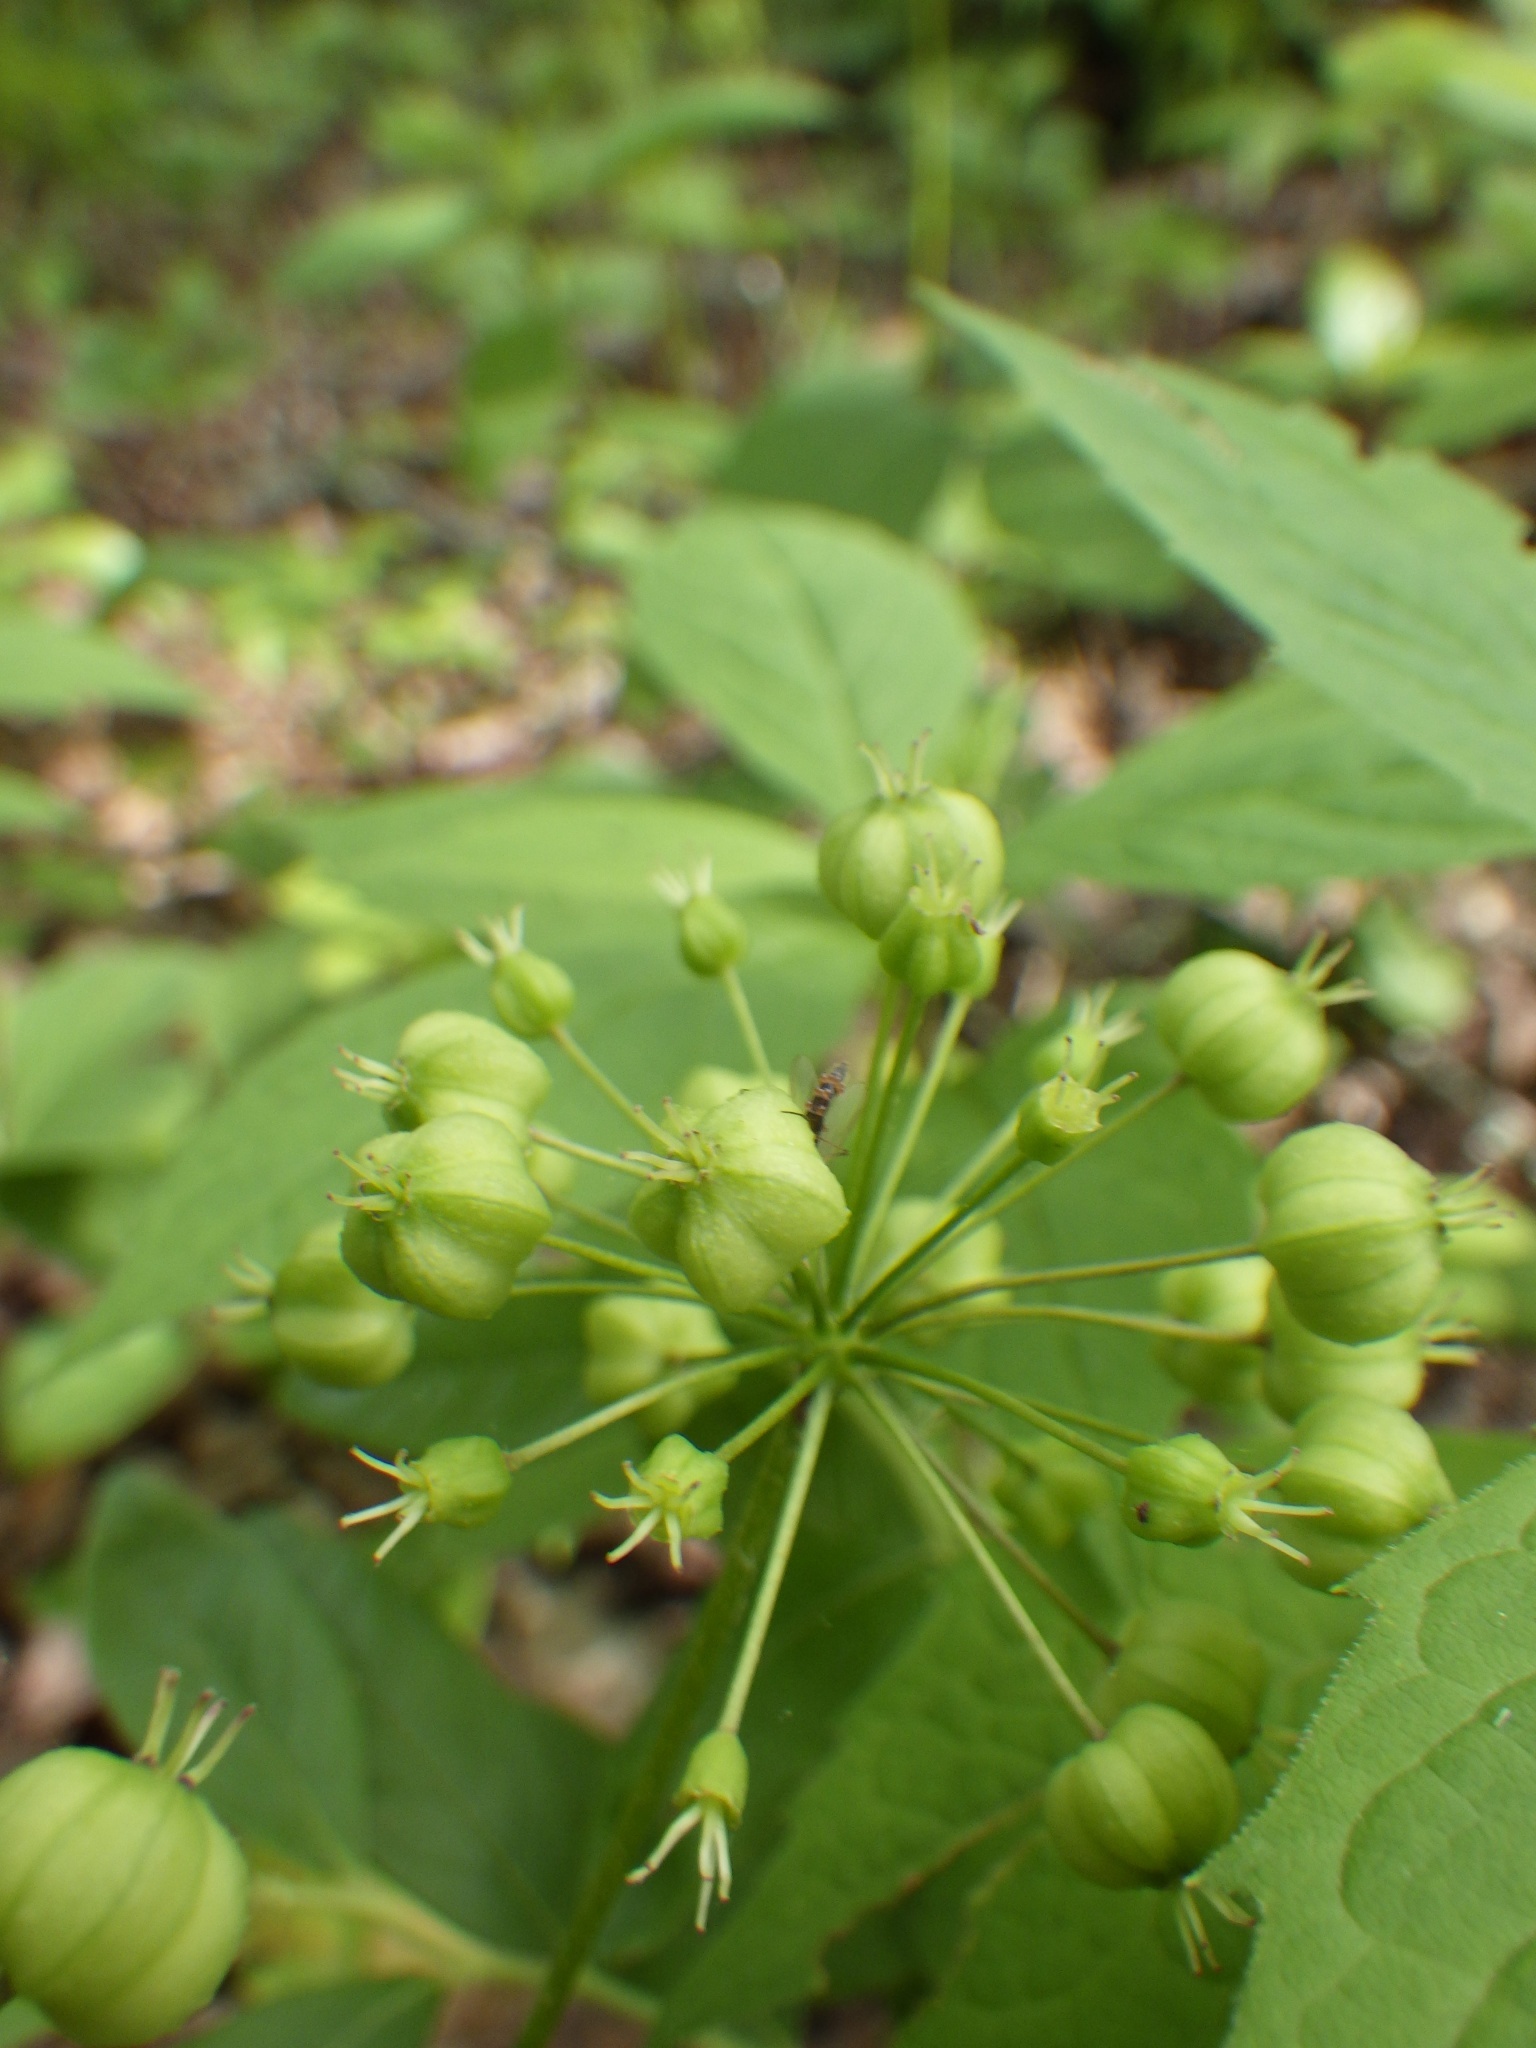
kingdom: Plantae
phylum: Tracheophyta
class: Magnoliopsida
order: Apiales
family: Araliaceae
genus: Aralia
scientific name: Aralia nudicaulis
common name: Wild sarsaparilla
